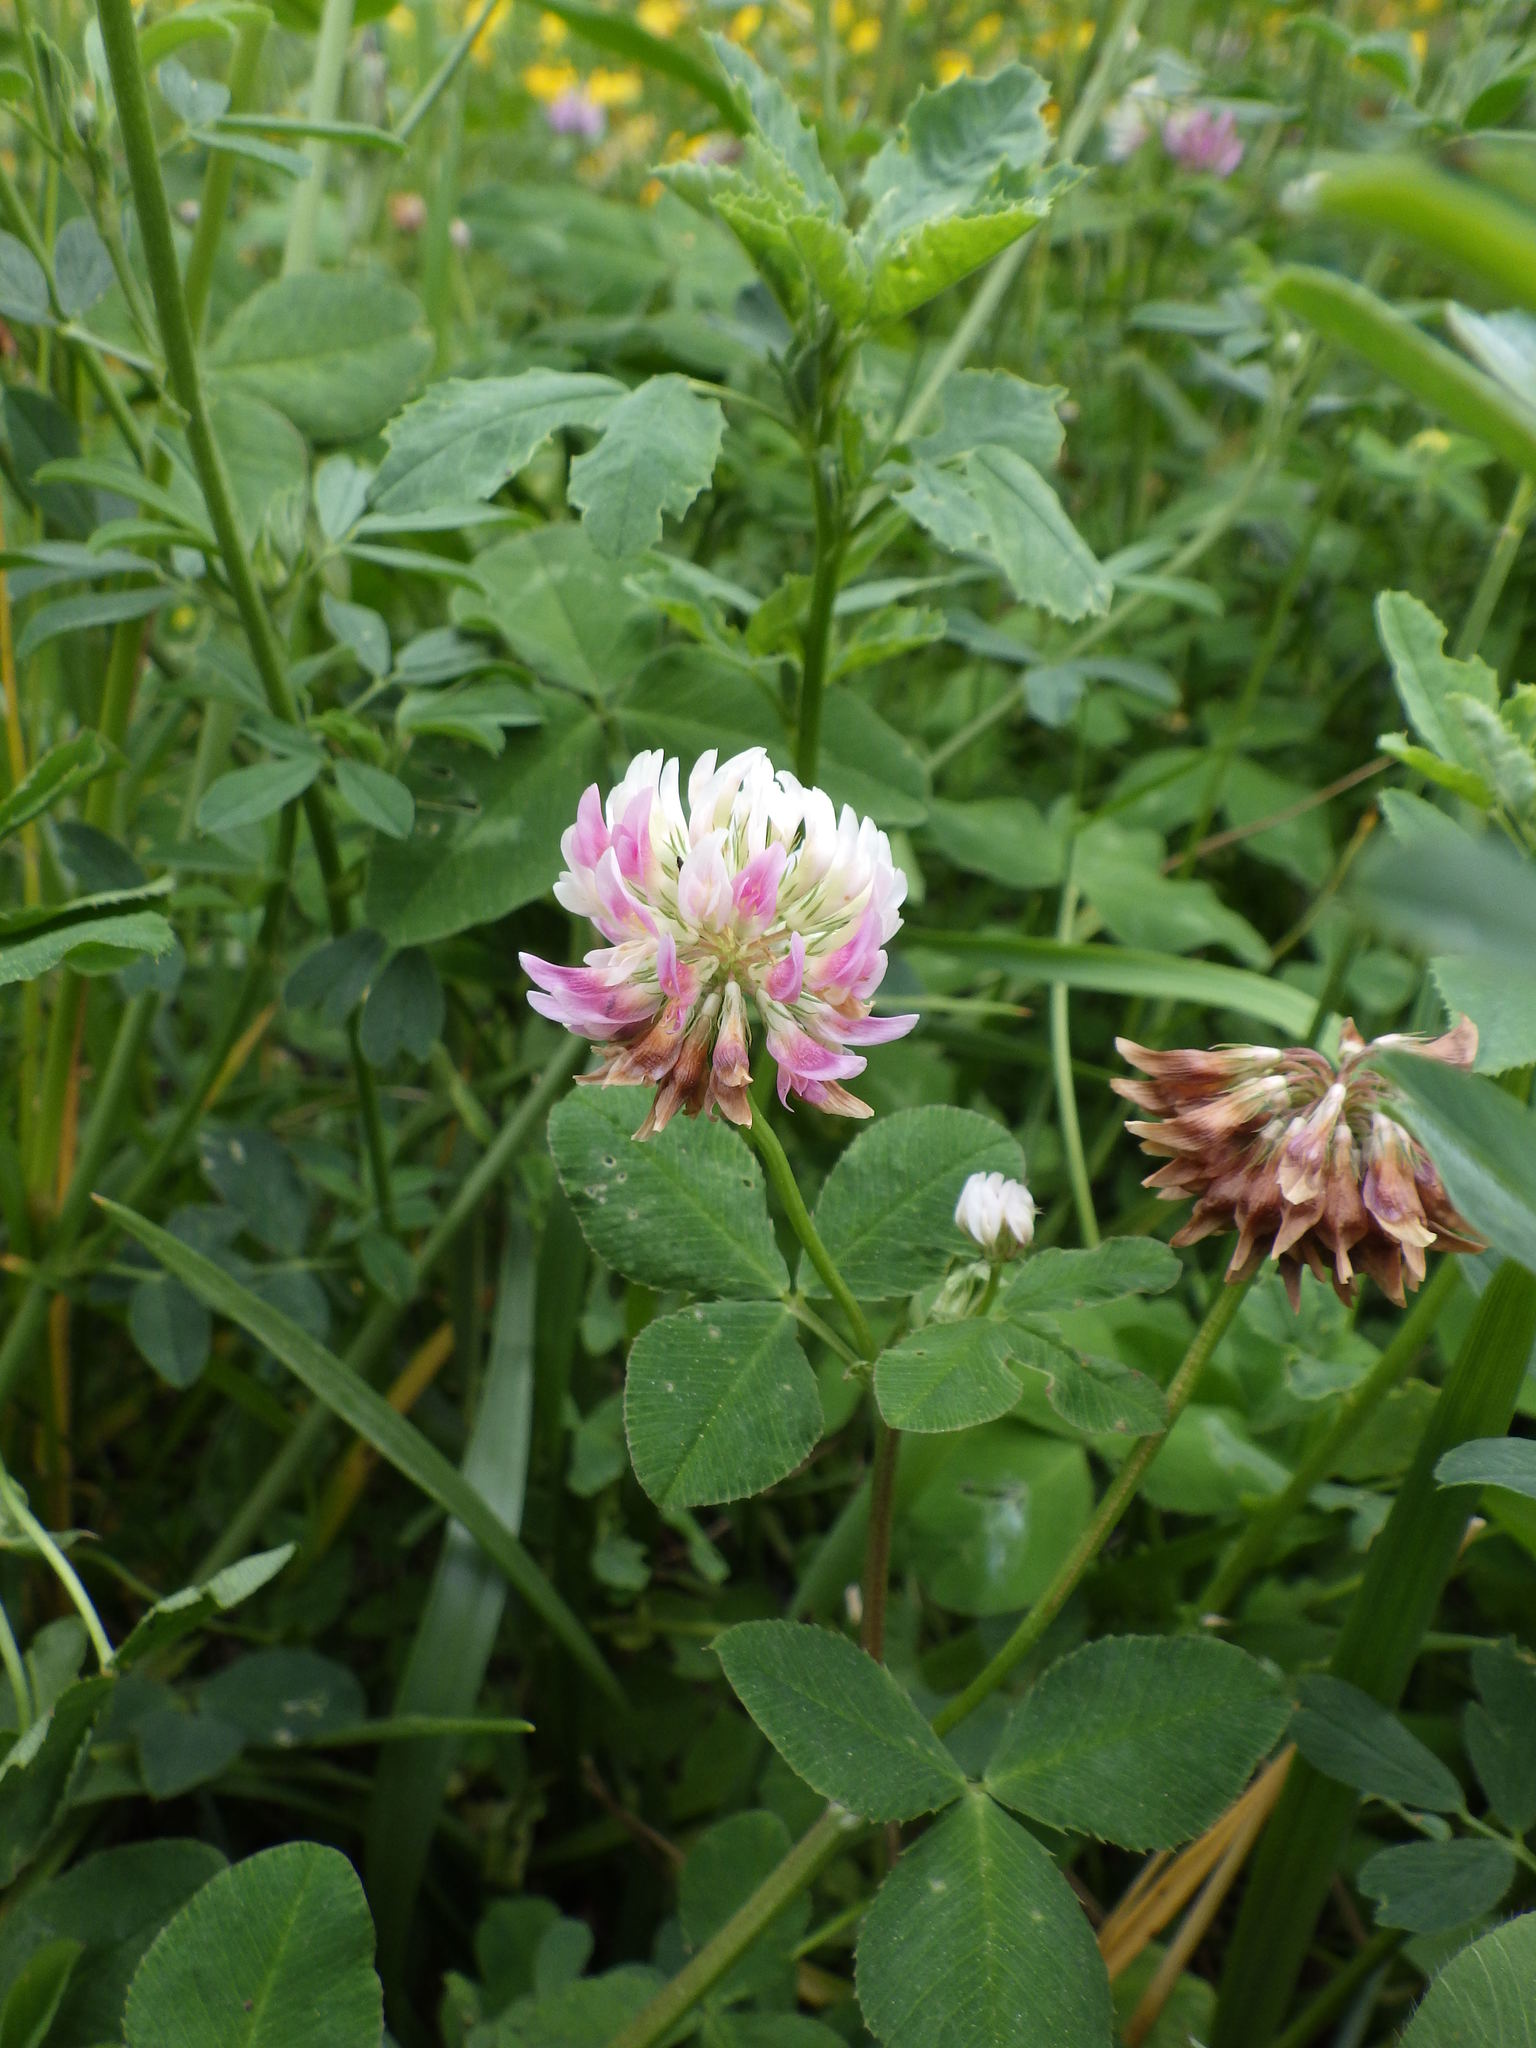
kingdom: Plantae
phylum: Tracheophyta
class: Magnoliopsida
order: Fabales
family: Fabaceae
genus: Trifolium
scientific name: Trifolium hybridum
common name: Alsike clover
